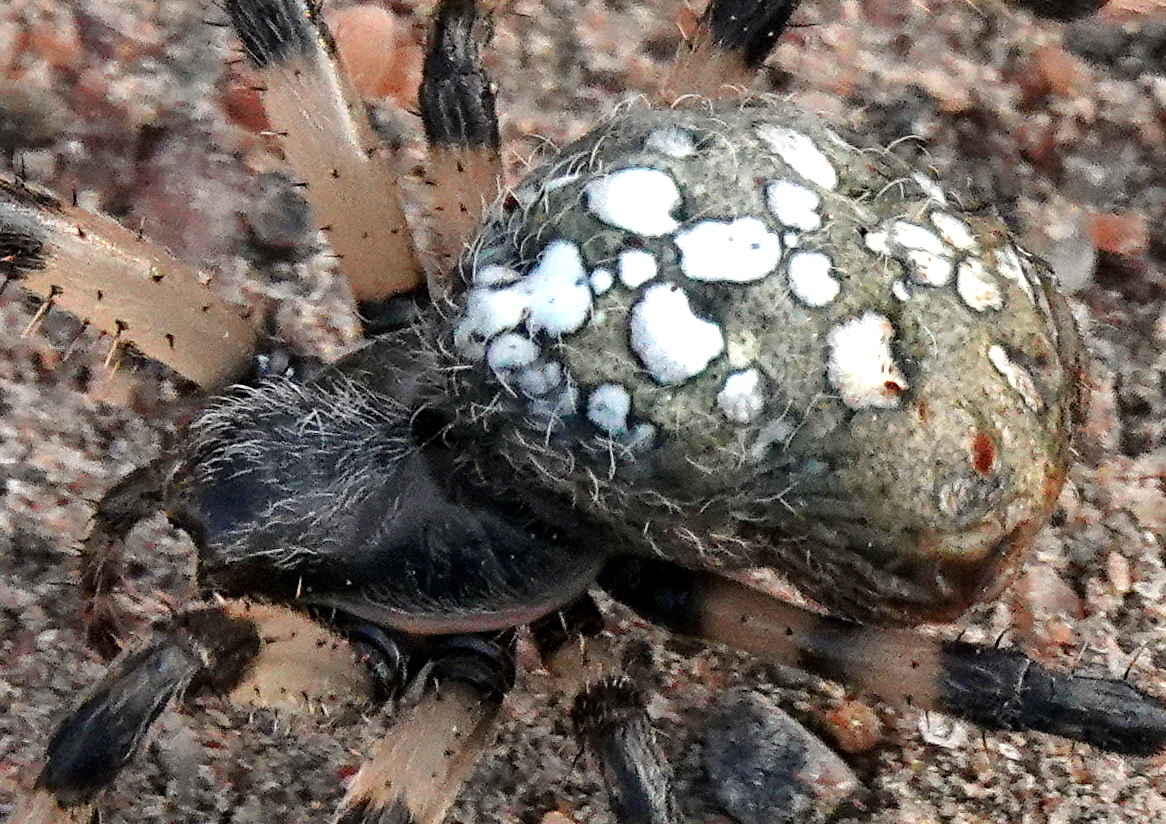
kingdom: Animalia
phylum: Arthropoda
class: Arachnida
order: Araneae
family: Araneidae
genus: Araneus
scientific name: Araneus trifolium
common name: Shamrock orbweaver
